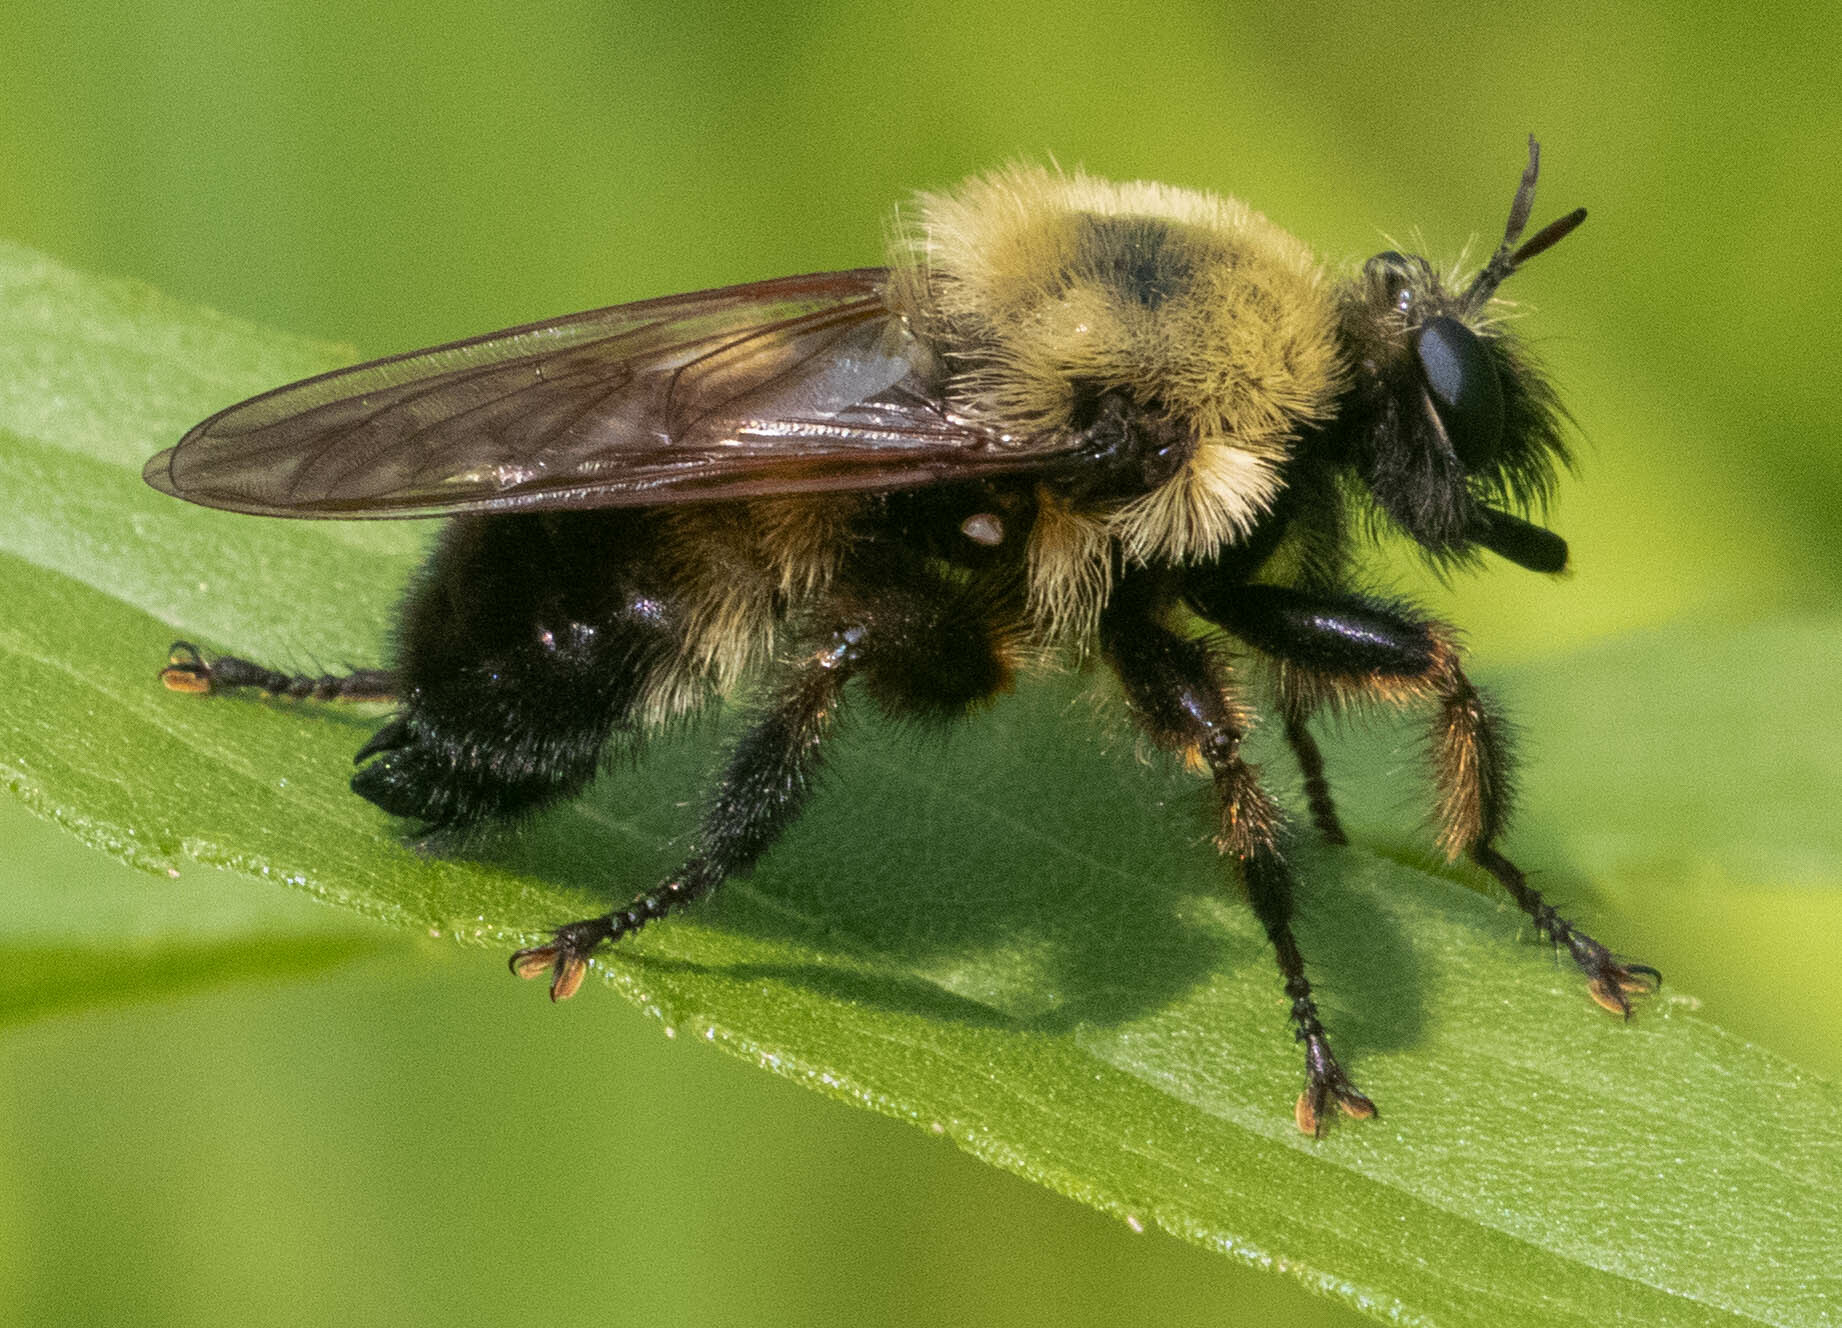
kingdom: Animalia
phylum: Arthropoda
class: Insecta
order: Diptera
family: Asilidae
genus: Laphria
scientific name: Laphria thoracica
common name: Bumble bee mimic robber fly
